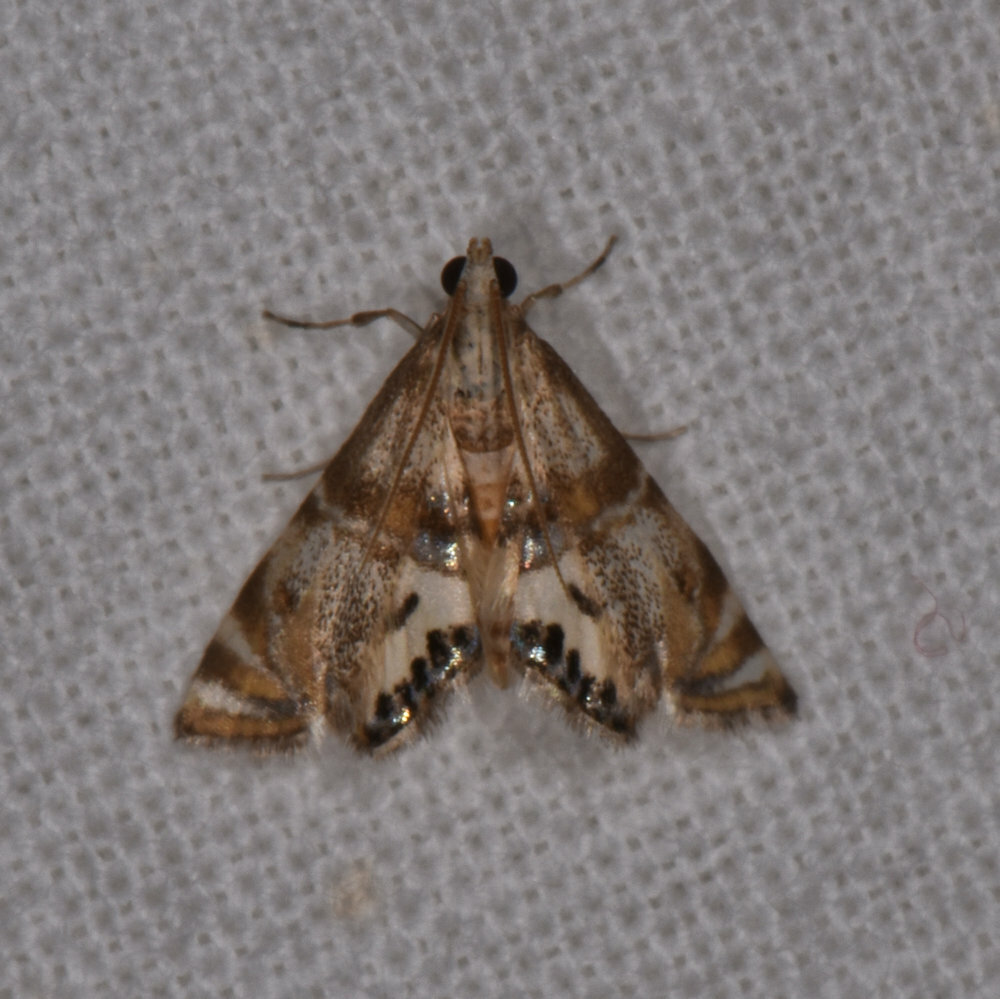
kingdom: Animalia
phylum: Arthropoda
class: Insecta
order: Lepidoptera
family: Crambidae
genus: Petrophila
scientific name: Petrophila bifascialis
